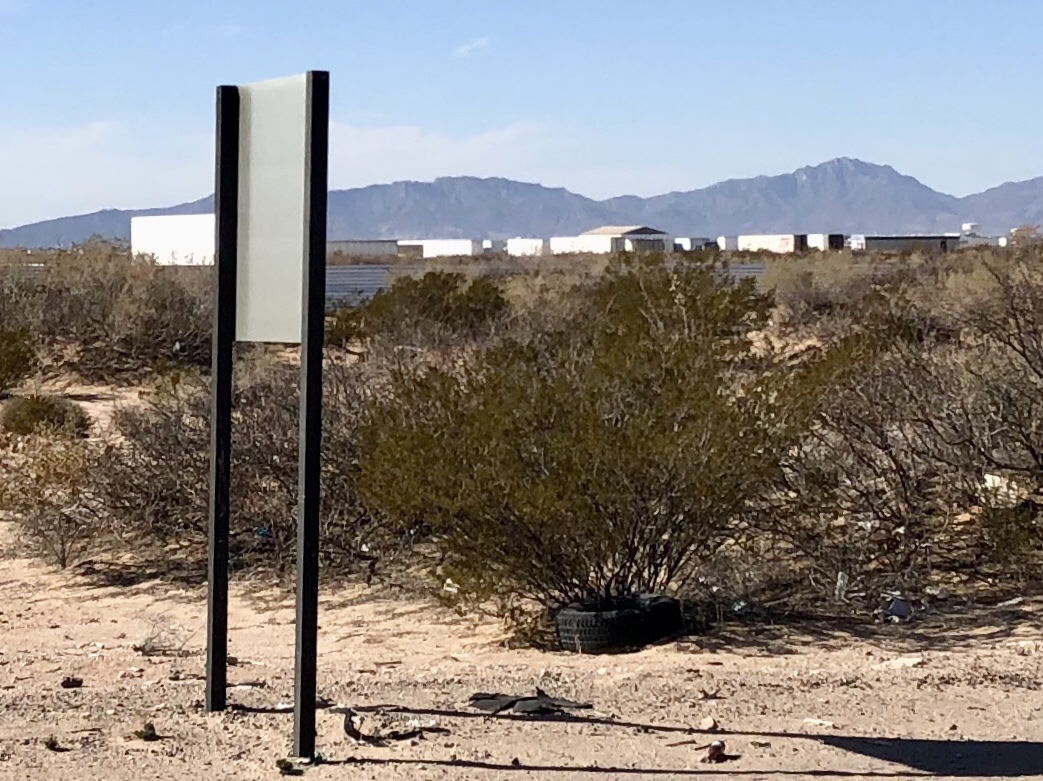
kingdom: Plantae
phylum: Tracheophyta
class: Magnoliopsida
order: Zygophyllales
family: Zygophyllaceae
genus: Larrea
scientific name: Larrea tridentata
